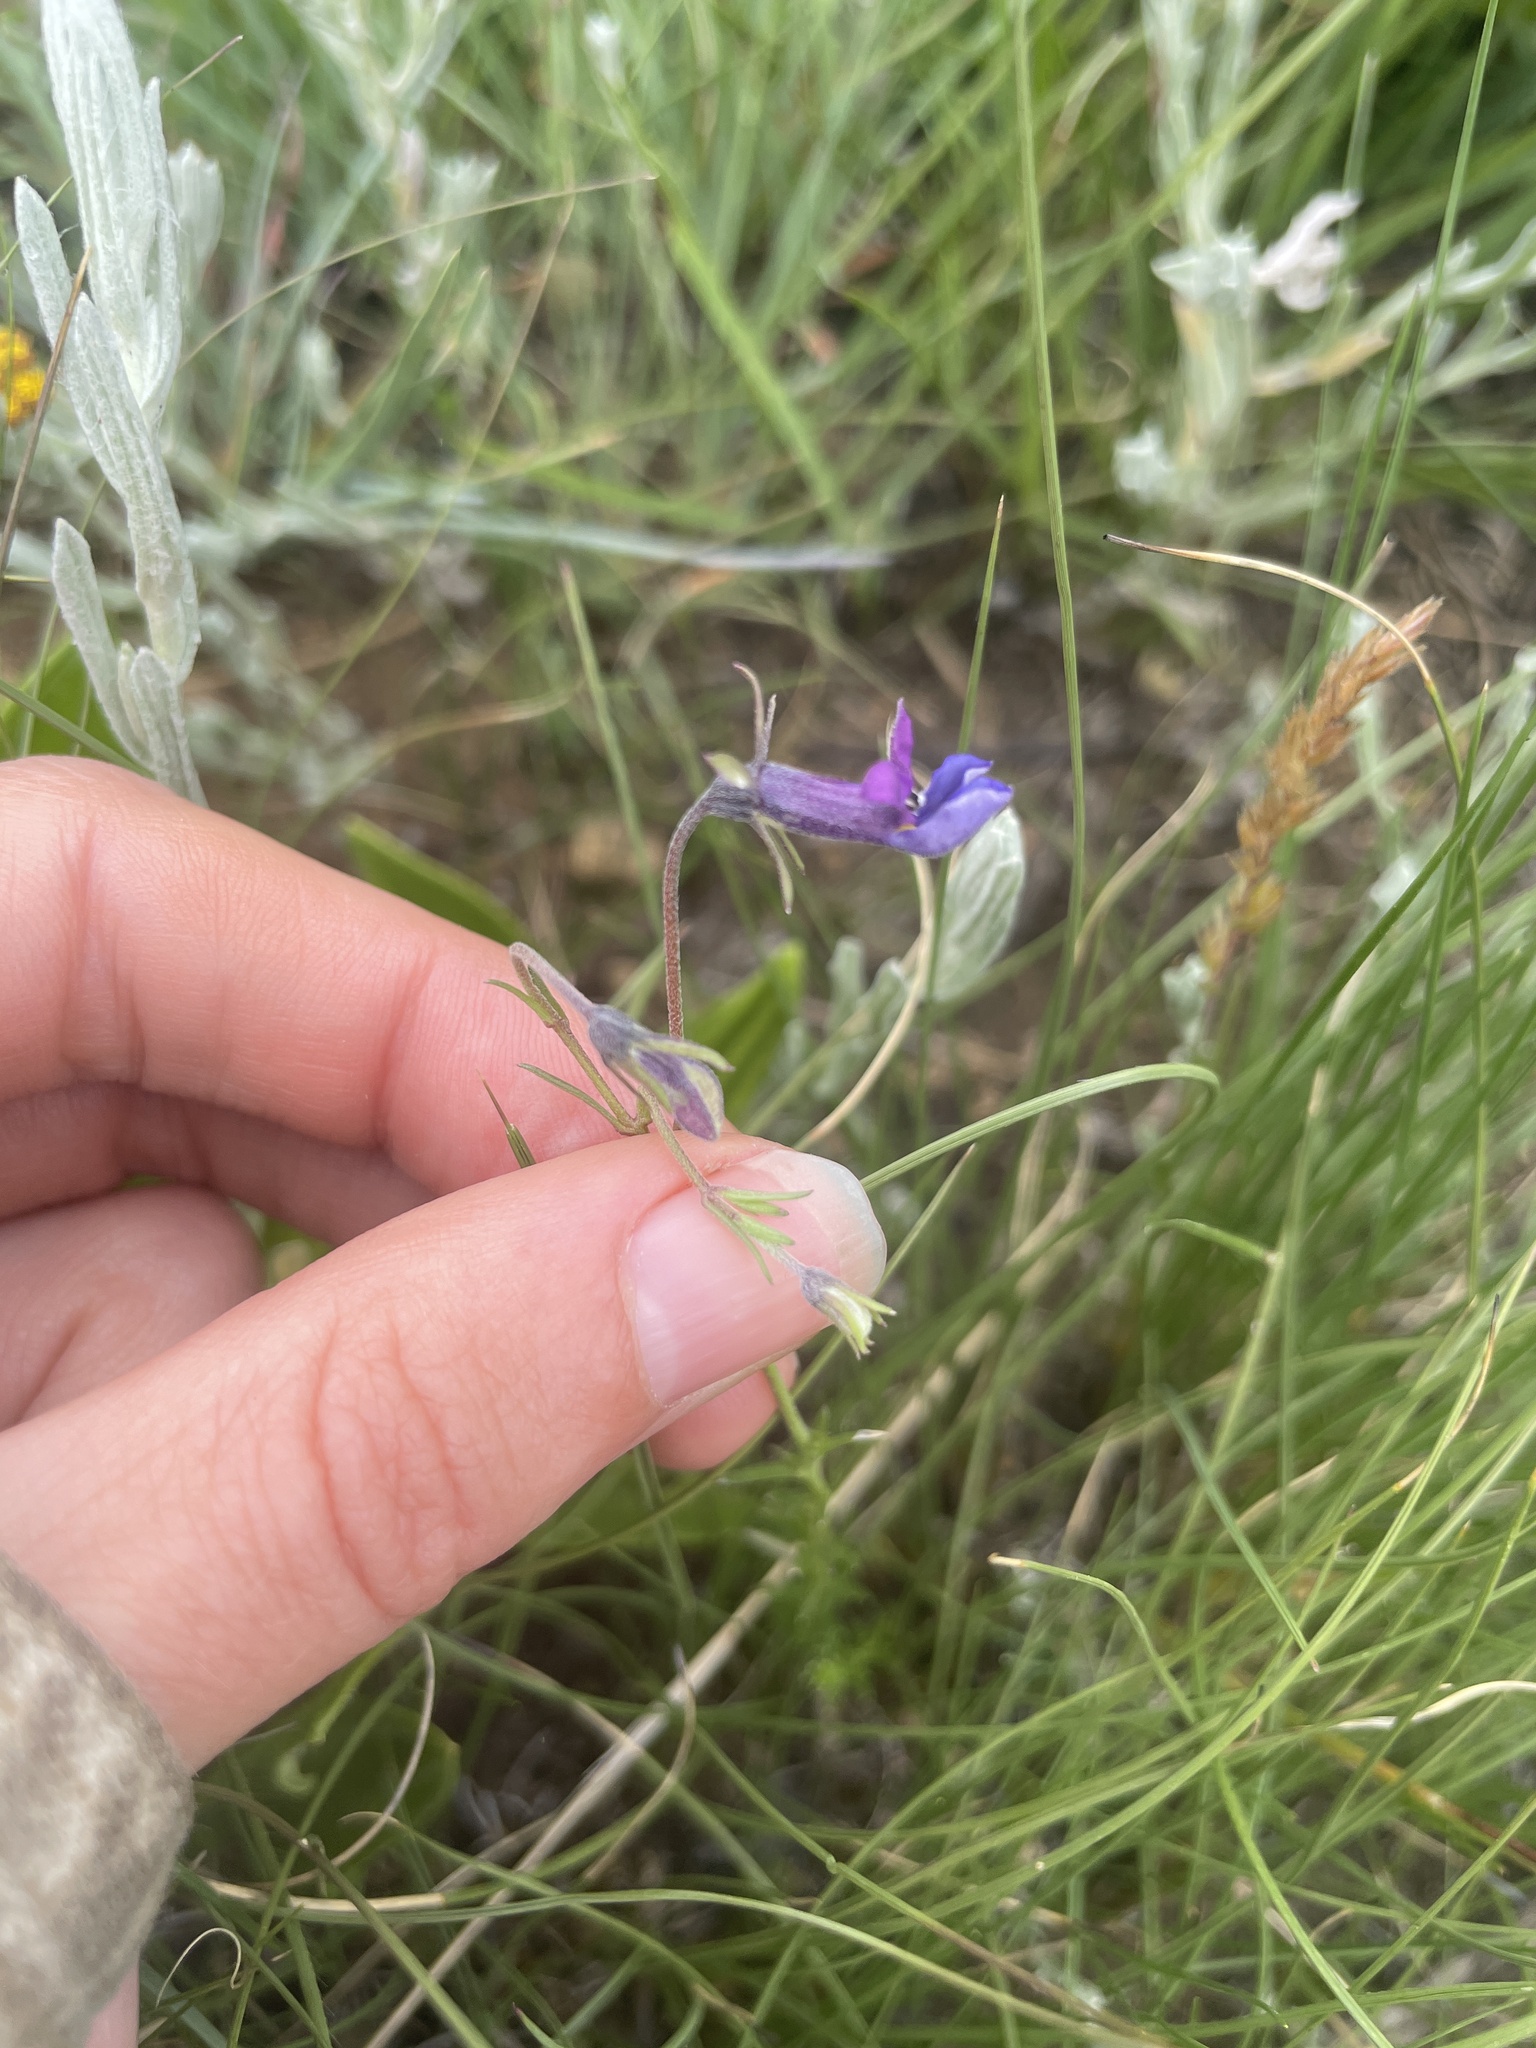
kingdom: Plantae
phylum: Tracheophyta
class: Magnoliopsida
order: Asterales
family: Campanulaceae
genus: Monopsis
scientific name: Monopsis decipiens
